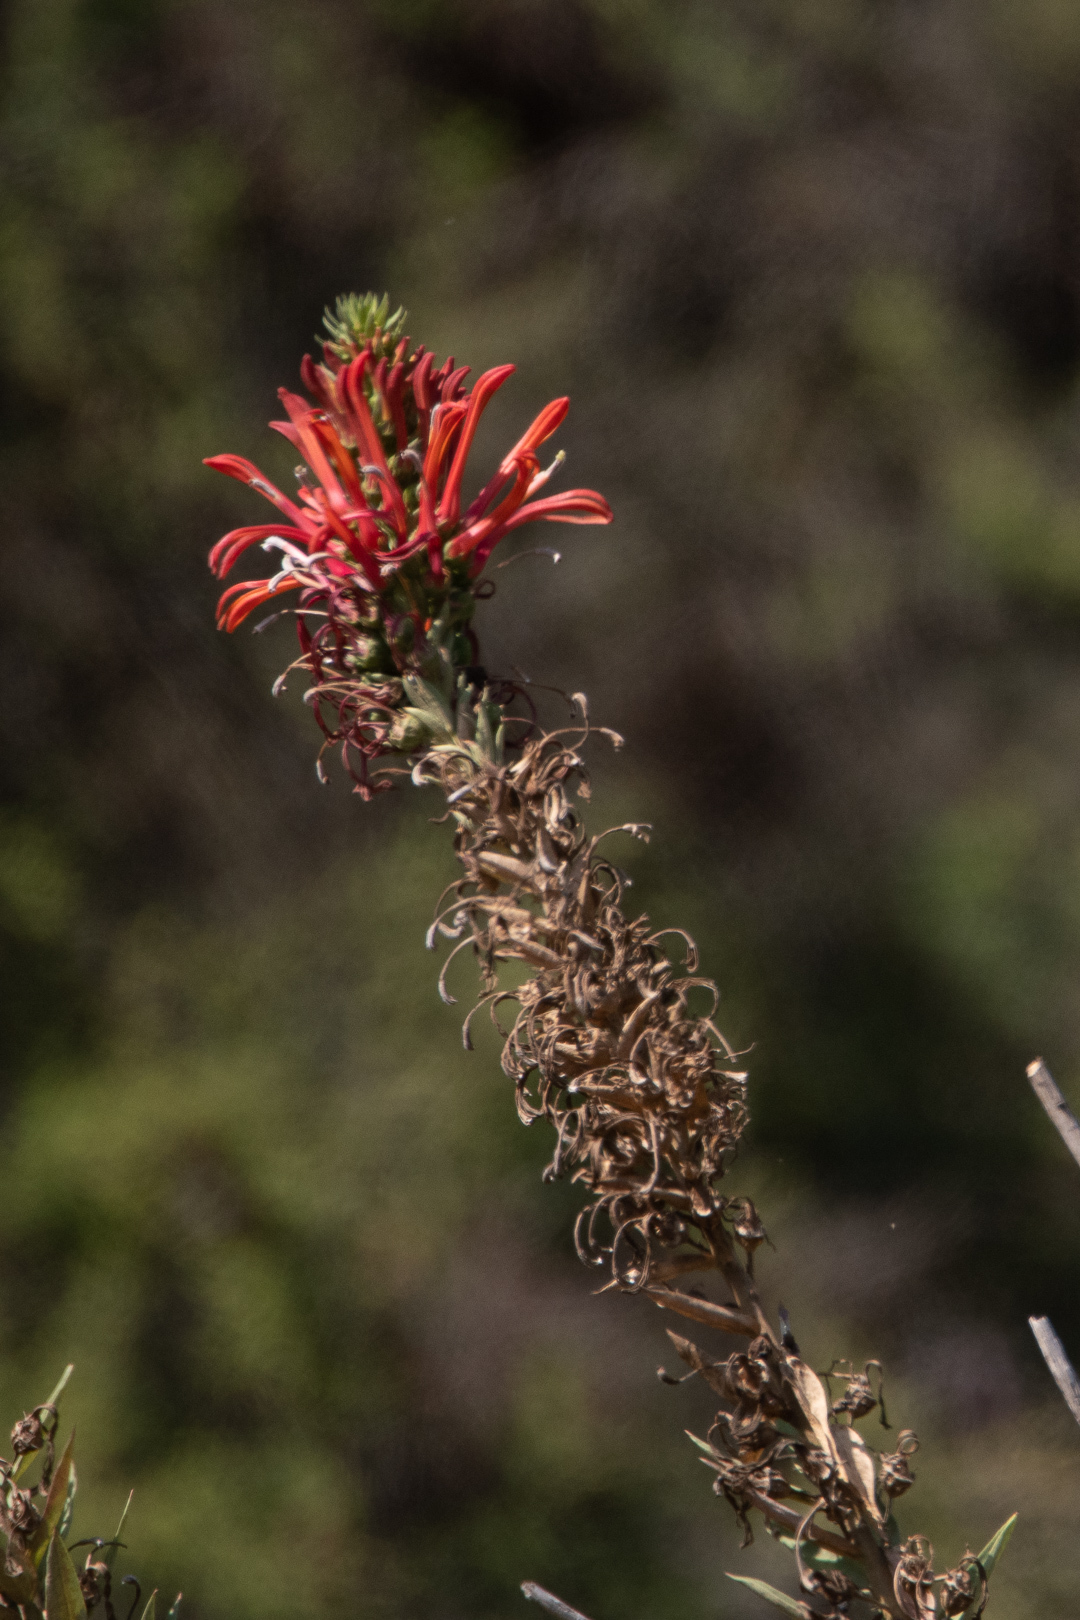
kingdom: Plantae
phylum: Tracheophyta
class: Magnoliopsida
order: Asterales
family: Campanulaceae
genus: Lobelia
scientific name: Lobelia excelsa
